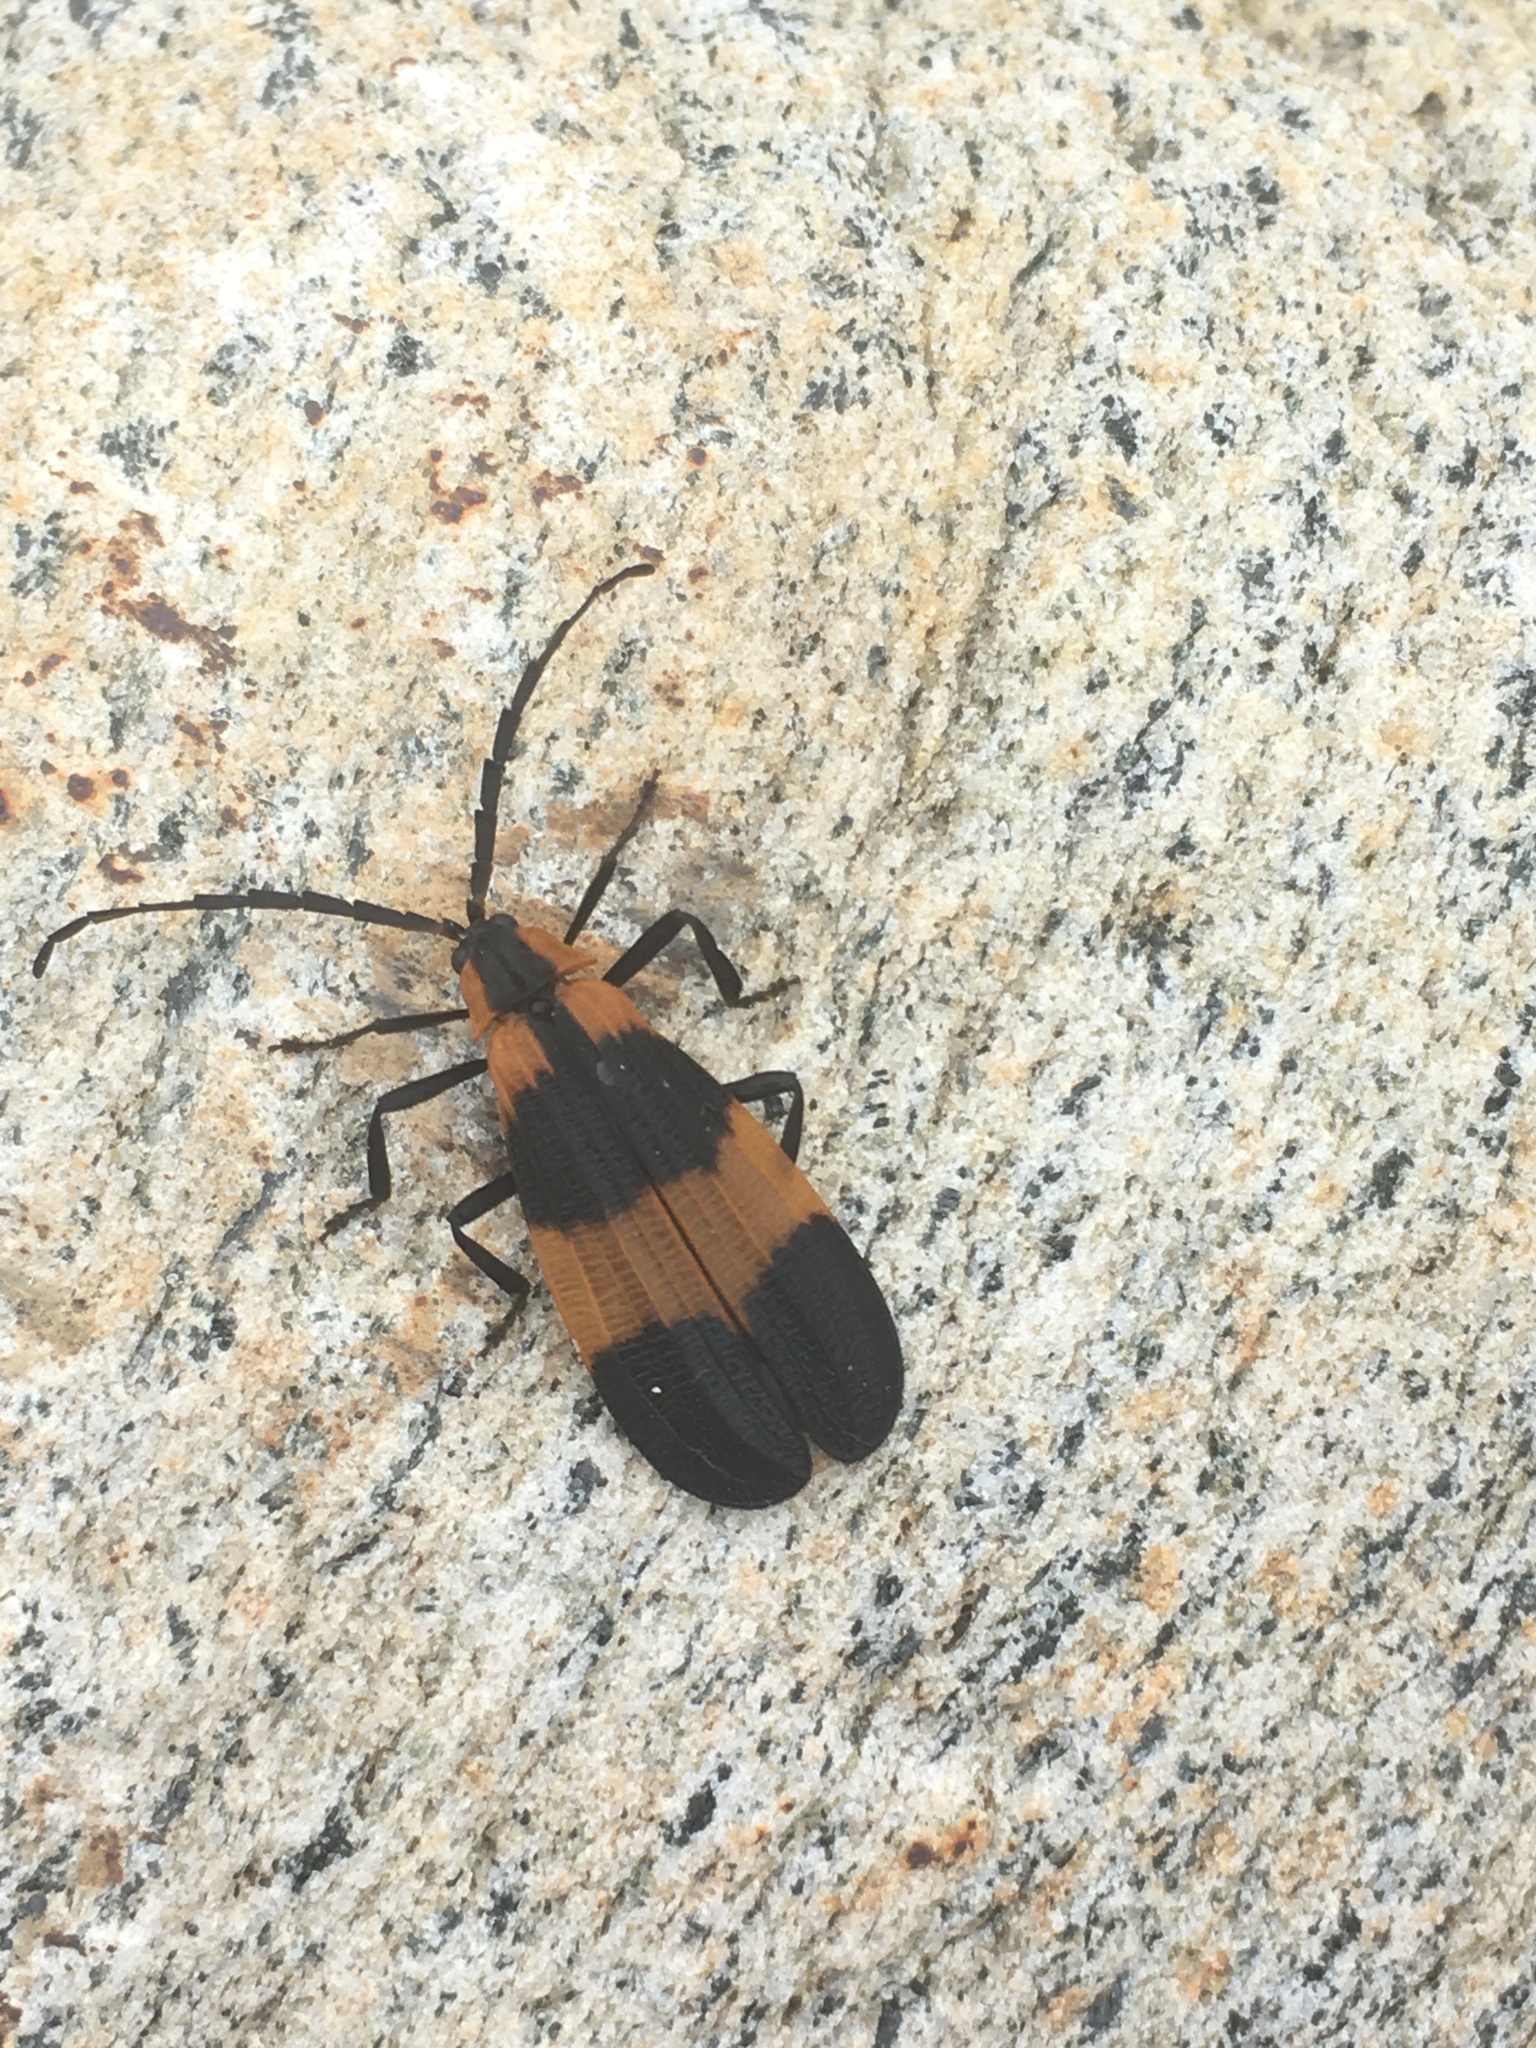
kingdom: Animalia
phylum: Arthropoda
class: Insecta
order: Coleoptera
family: Lycidae
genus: Calopteron
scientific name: Calopteron reticulatum
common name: Banded net-winged beetle
